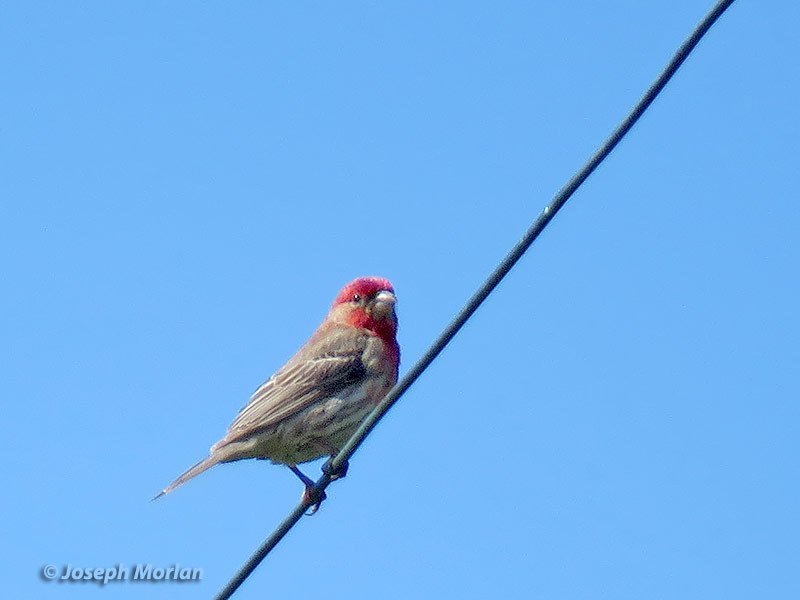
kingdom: Animalia
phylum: Chordata
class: Aves
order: Passeriformes
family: Fringillidae
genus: Haemorhous
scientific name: Haemorhous mexicanus
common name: House finch
